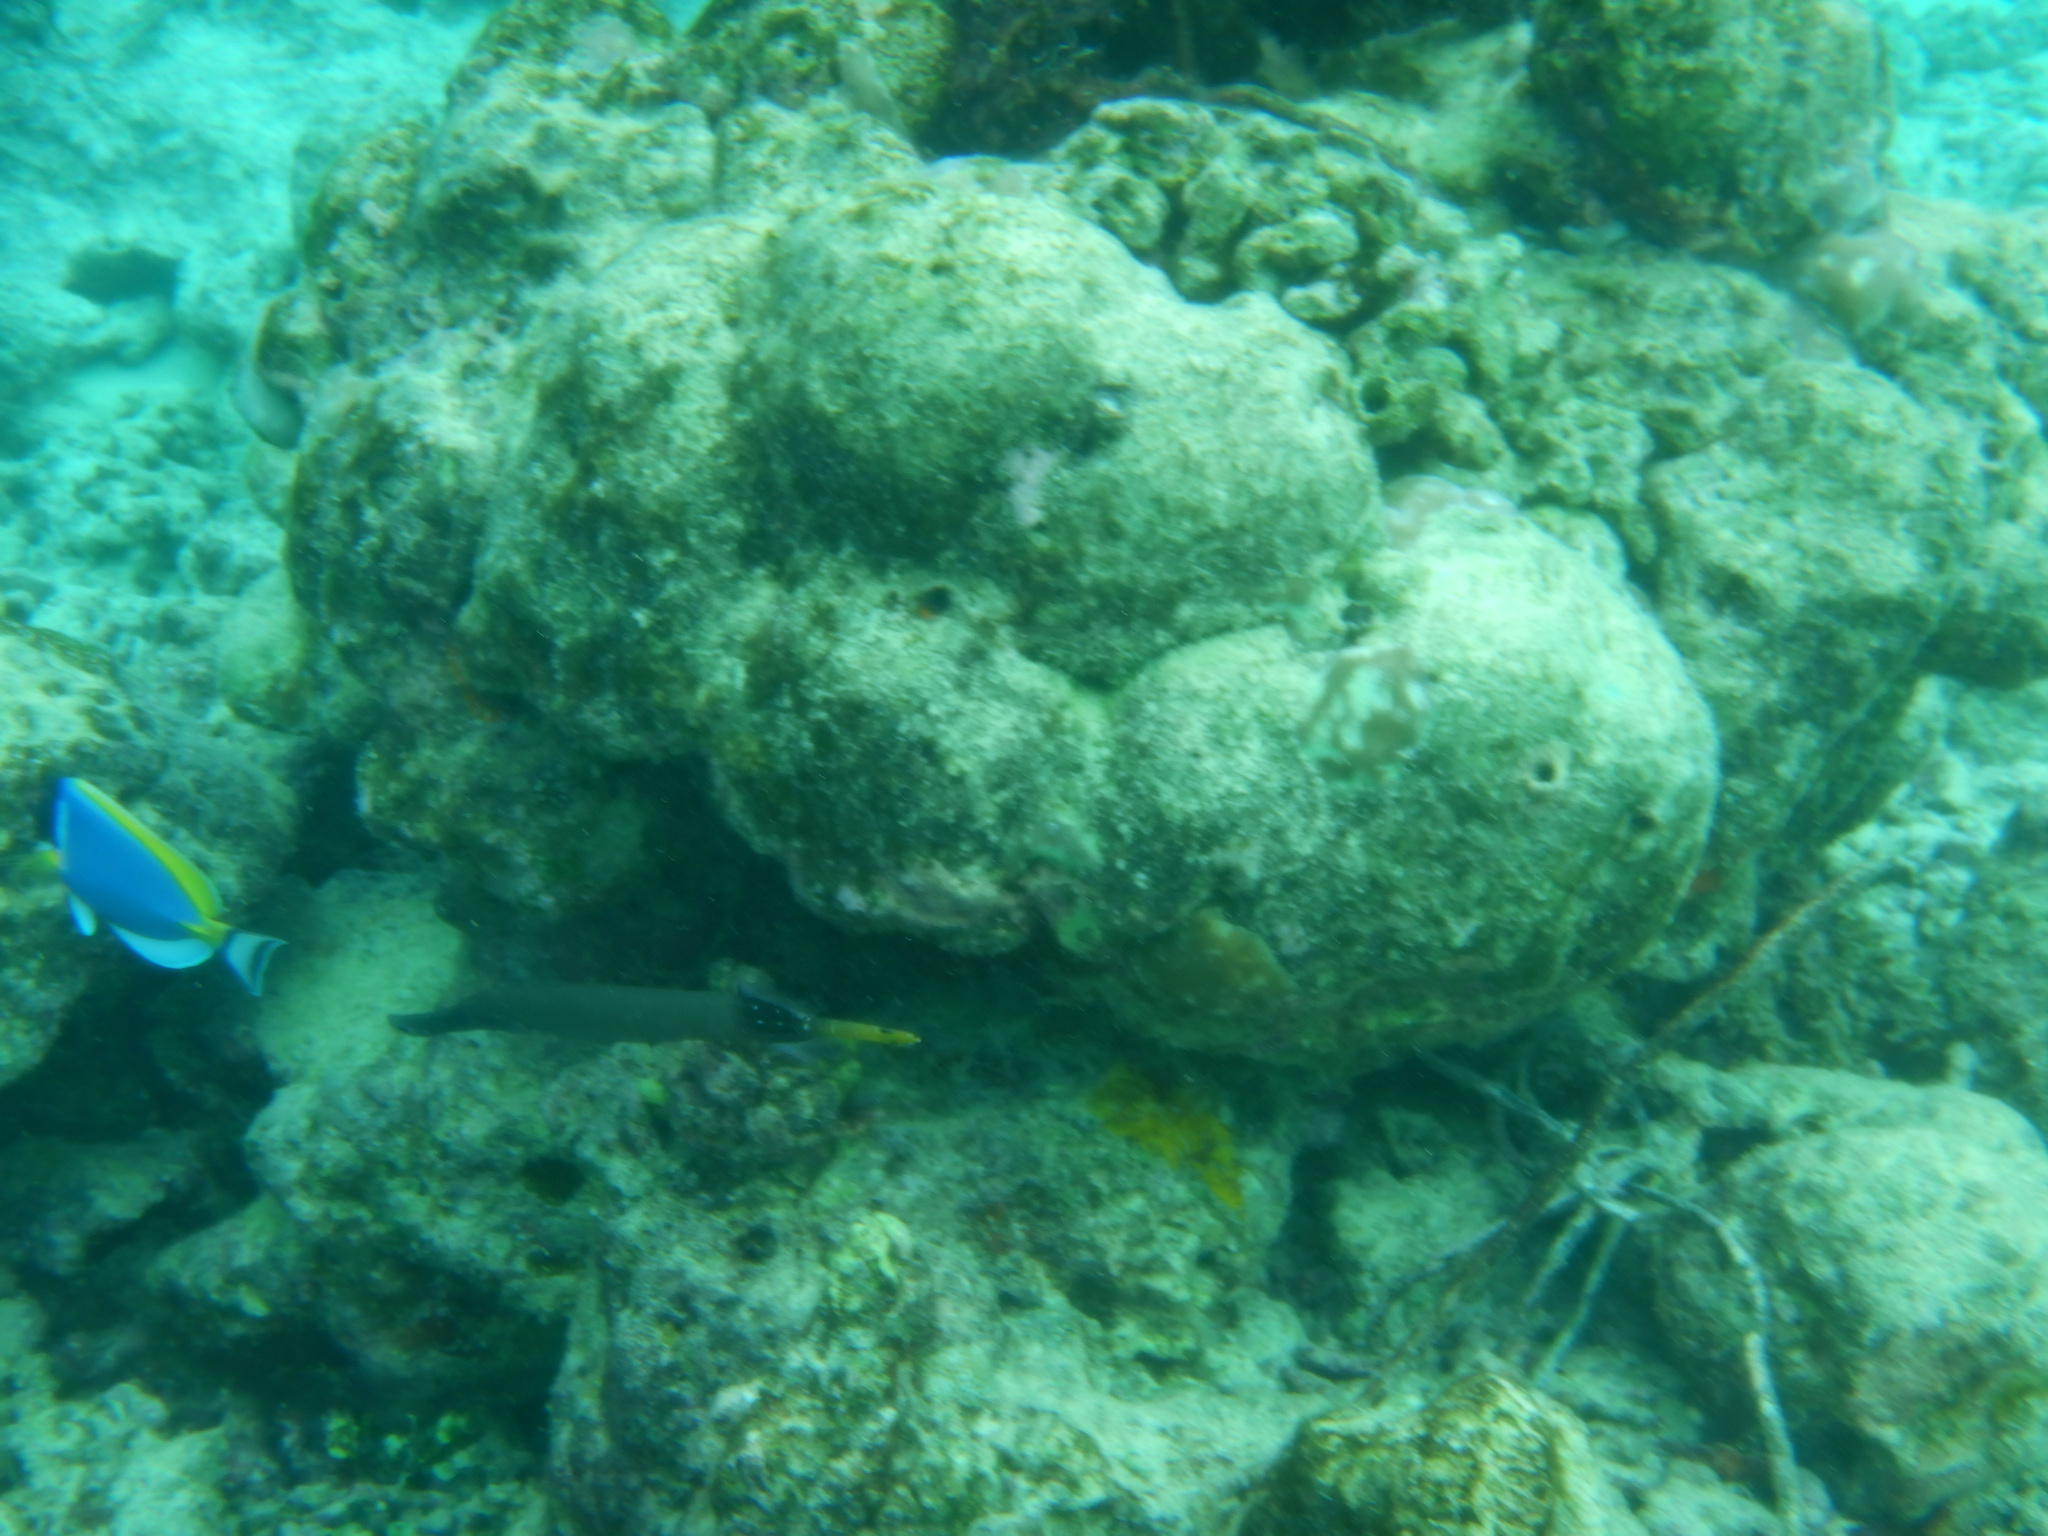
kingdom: Animalia
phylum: Chordata
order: Syngnathiformes
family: Aulostomidae
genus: Aulostomus
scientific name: Aulostomus chinensis
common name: Chinese trumpetfish
